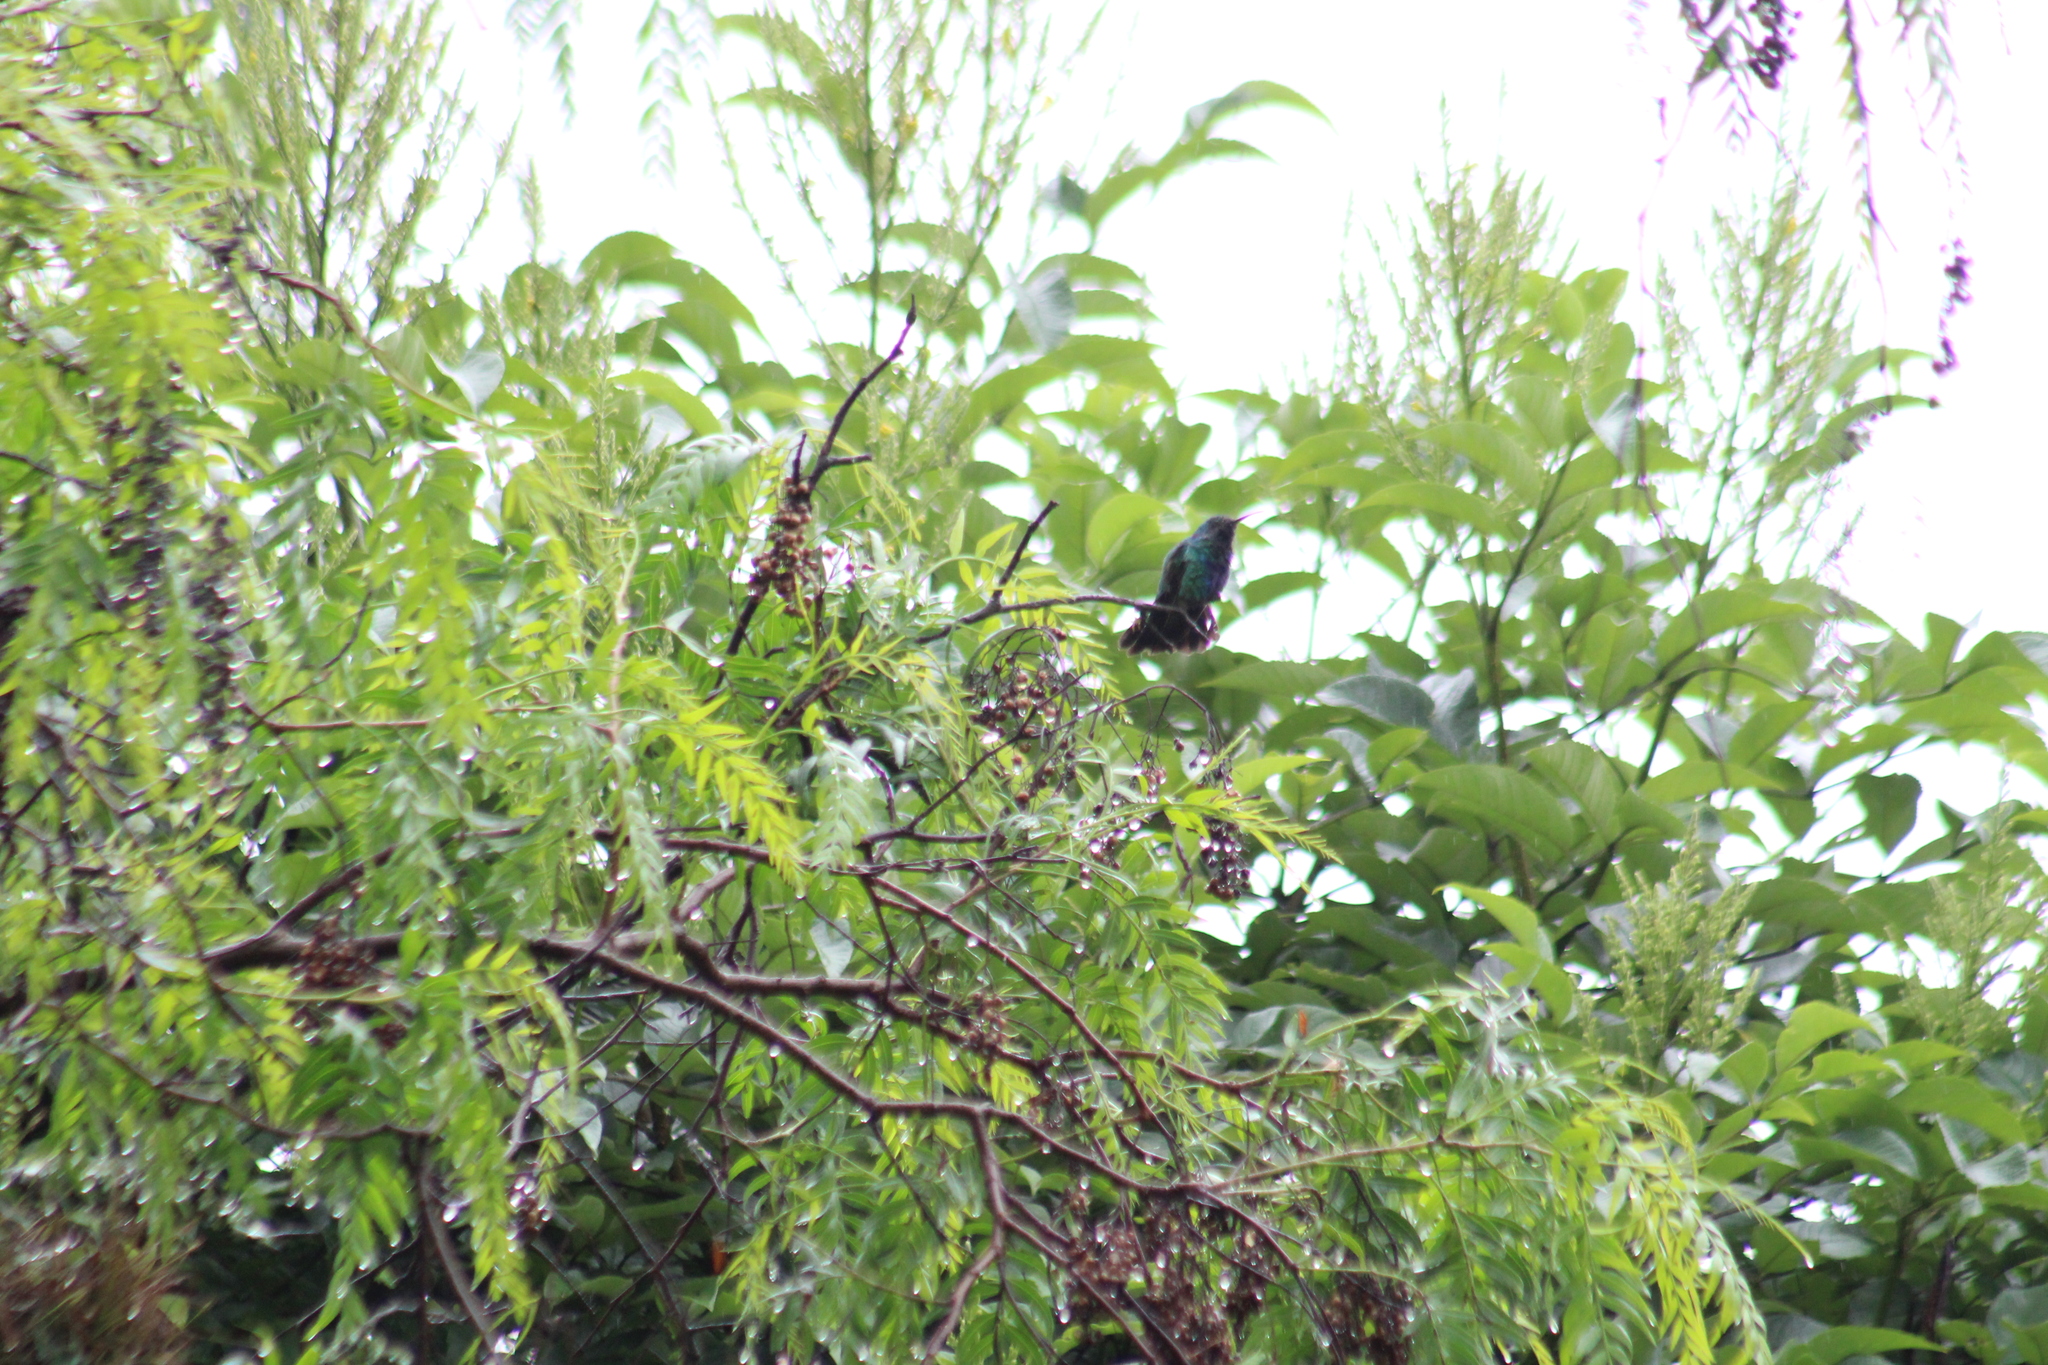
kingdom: Animalia
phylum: Chordata
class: Aves
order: Apodiformes
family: Trochilidae
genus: Colibri
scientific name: Colibri coruscans
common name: Sparkling violetear
